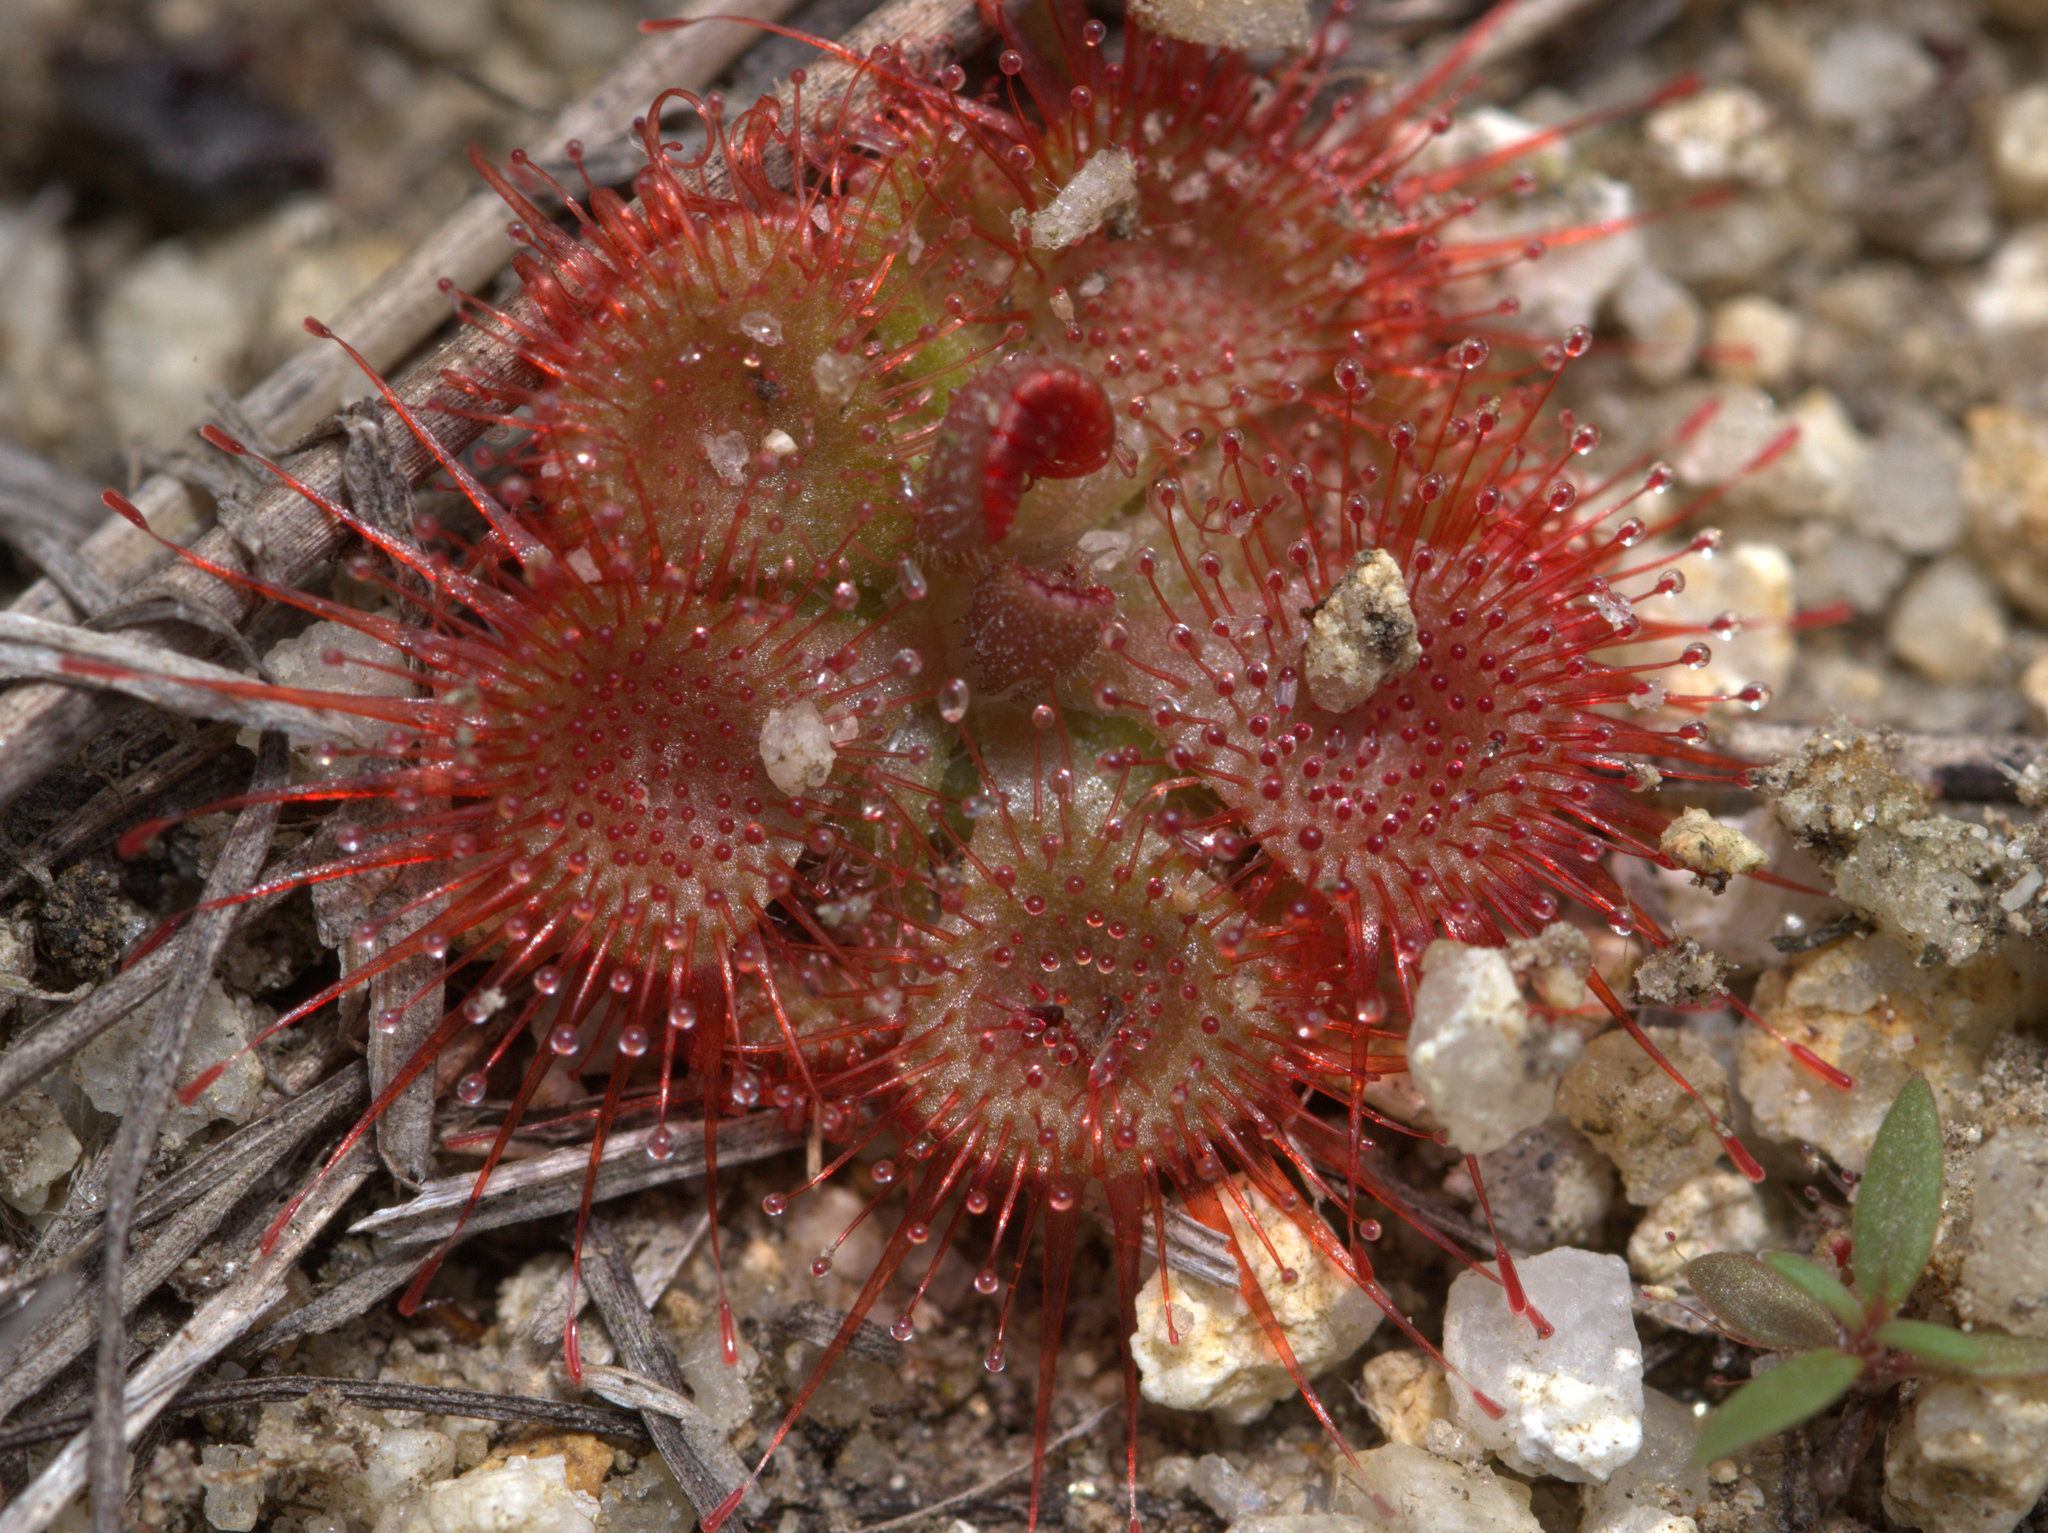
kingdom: Plantae
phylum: Tracheophyta
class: Magnoliopsida
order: Caryophyllales
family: Droseraceae
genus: Drosera
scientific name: Drosera spatulata
